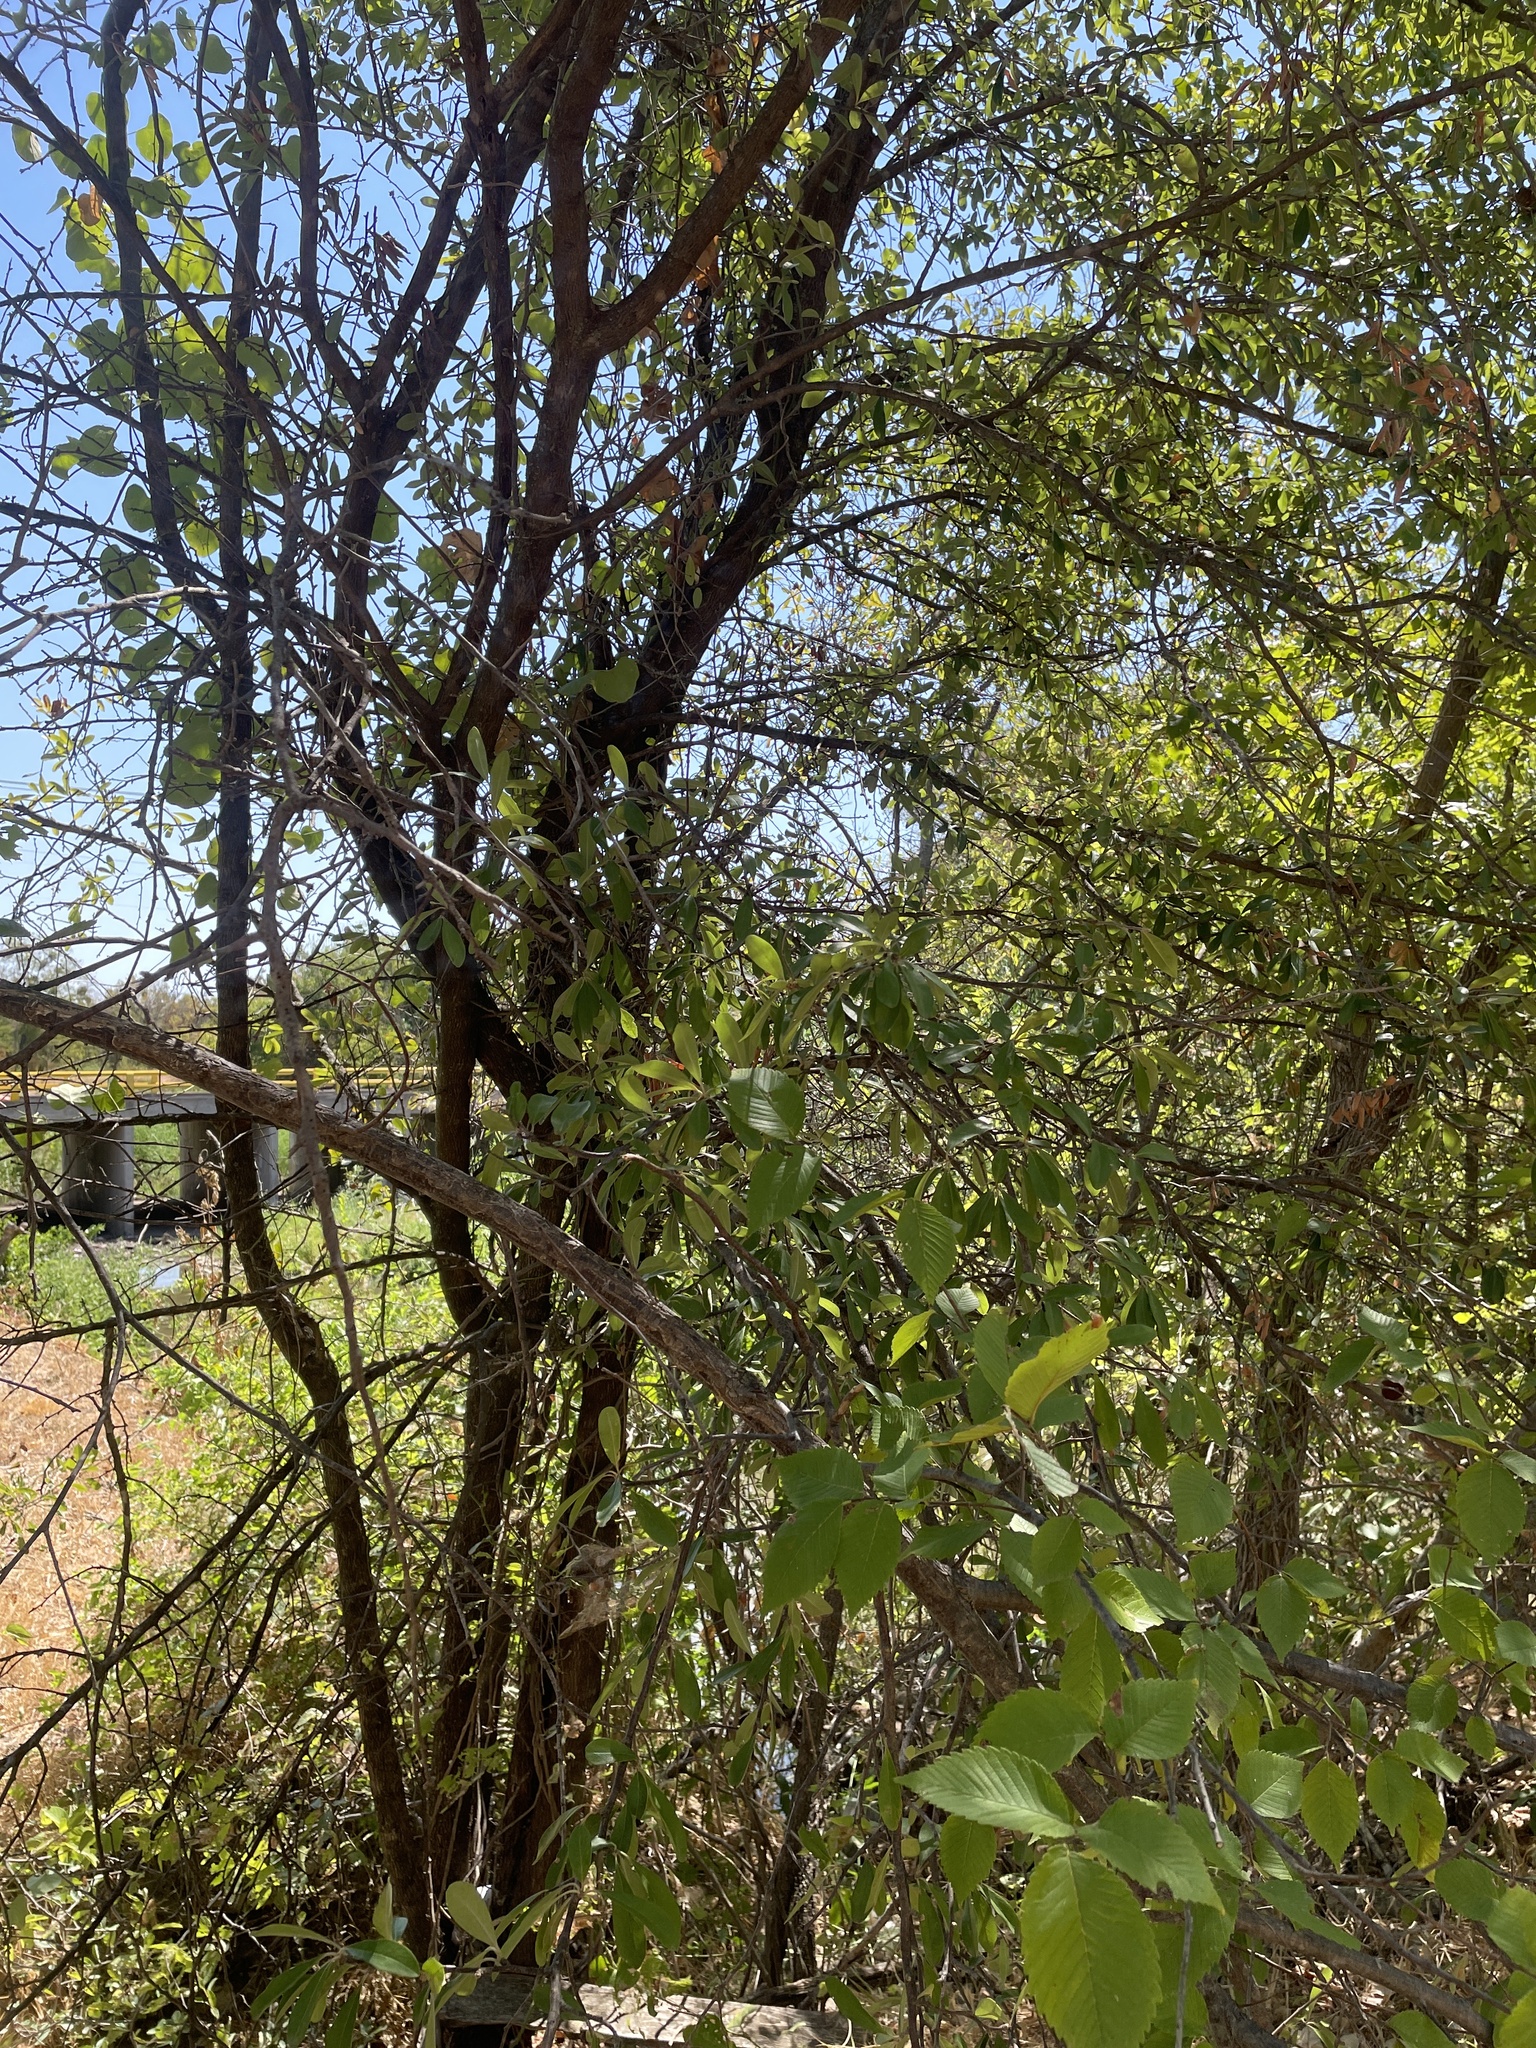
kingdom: Plantae
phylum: Tracheophyta
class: Magnoliopsida
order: Ericales
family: Sapotaceae
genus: Sideroxylon
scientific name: Sideroxylon lanuginosum
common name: Chittamwood
